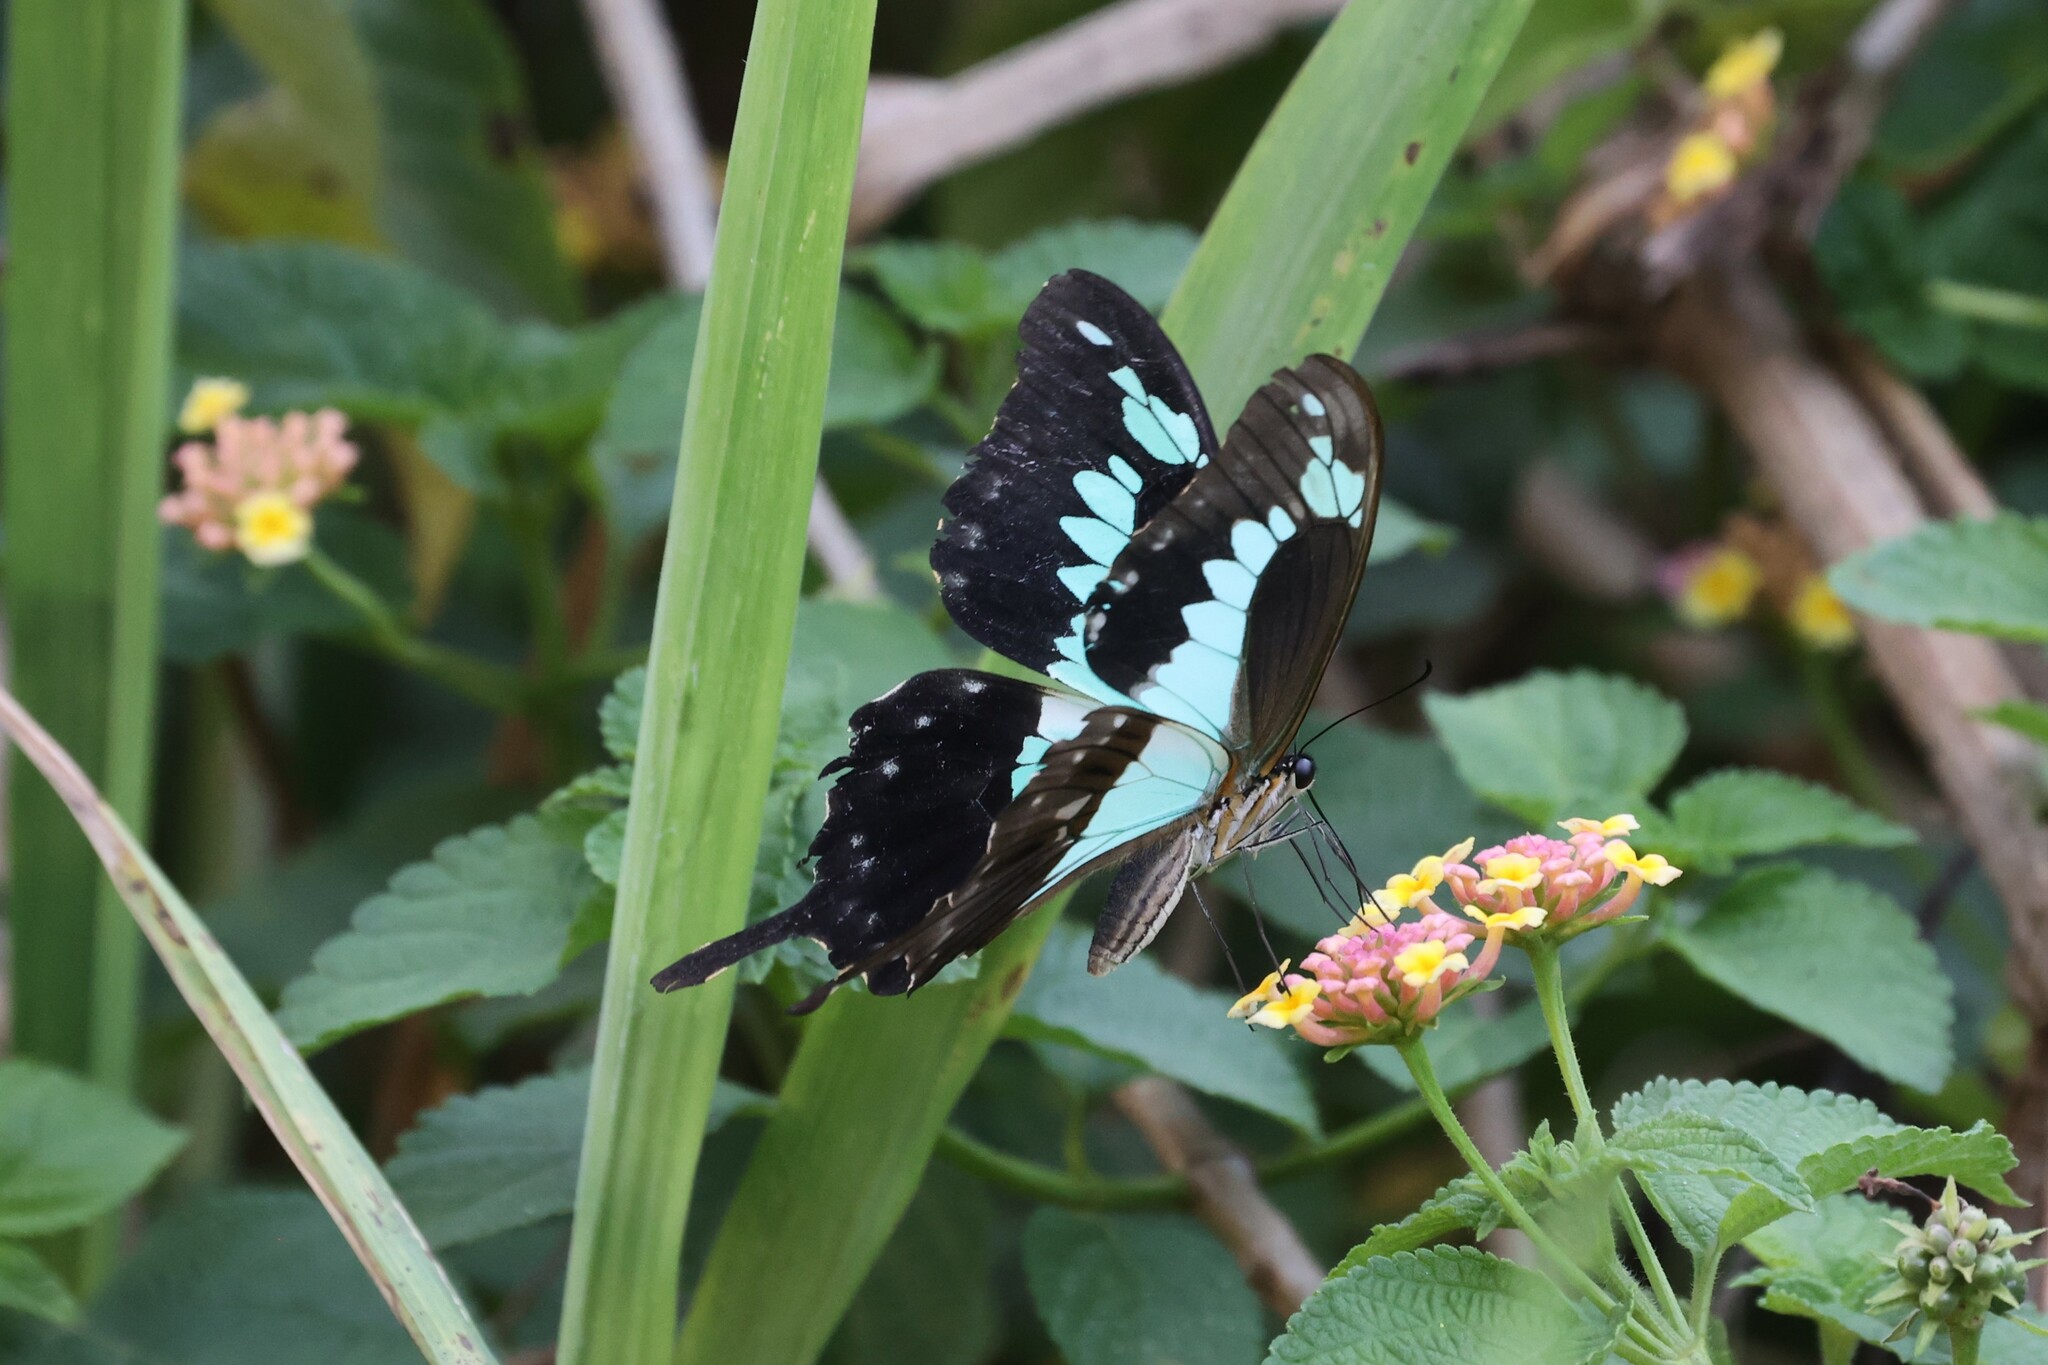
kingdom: Animalia
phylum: Arthropoda
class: Insecta
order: Lepidoptera
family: Papilionidae
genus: Papilio
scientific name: Papilio phorcas
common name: Apple-green swallowtail
